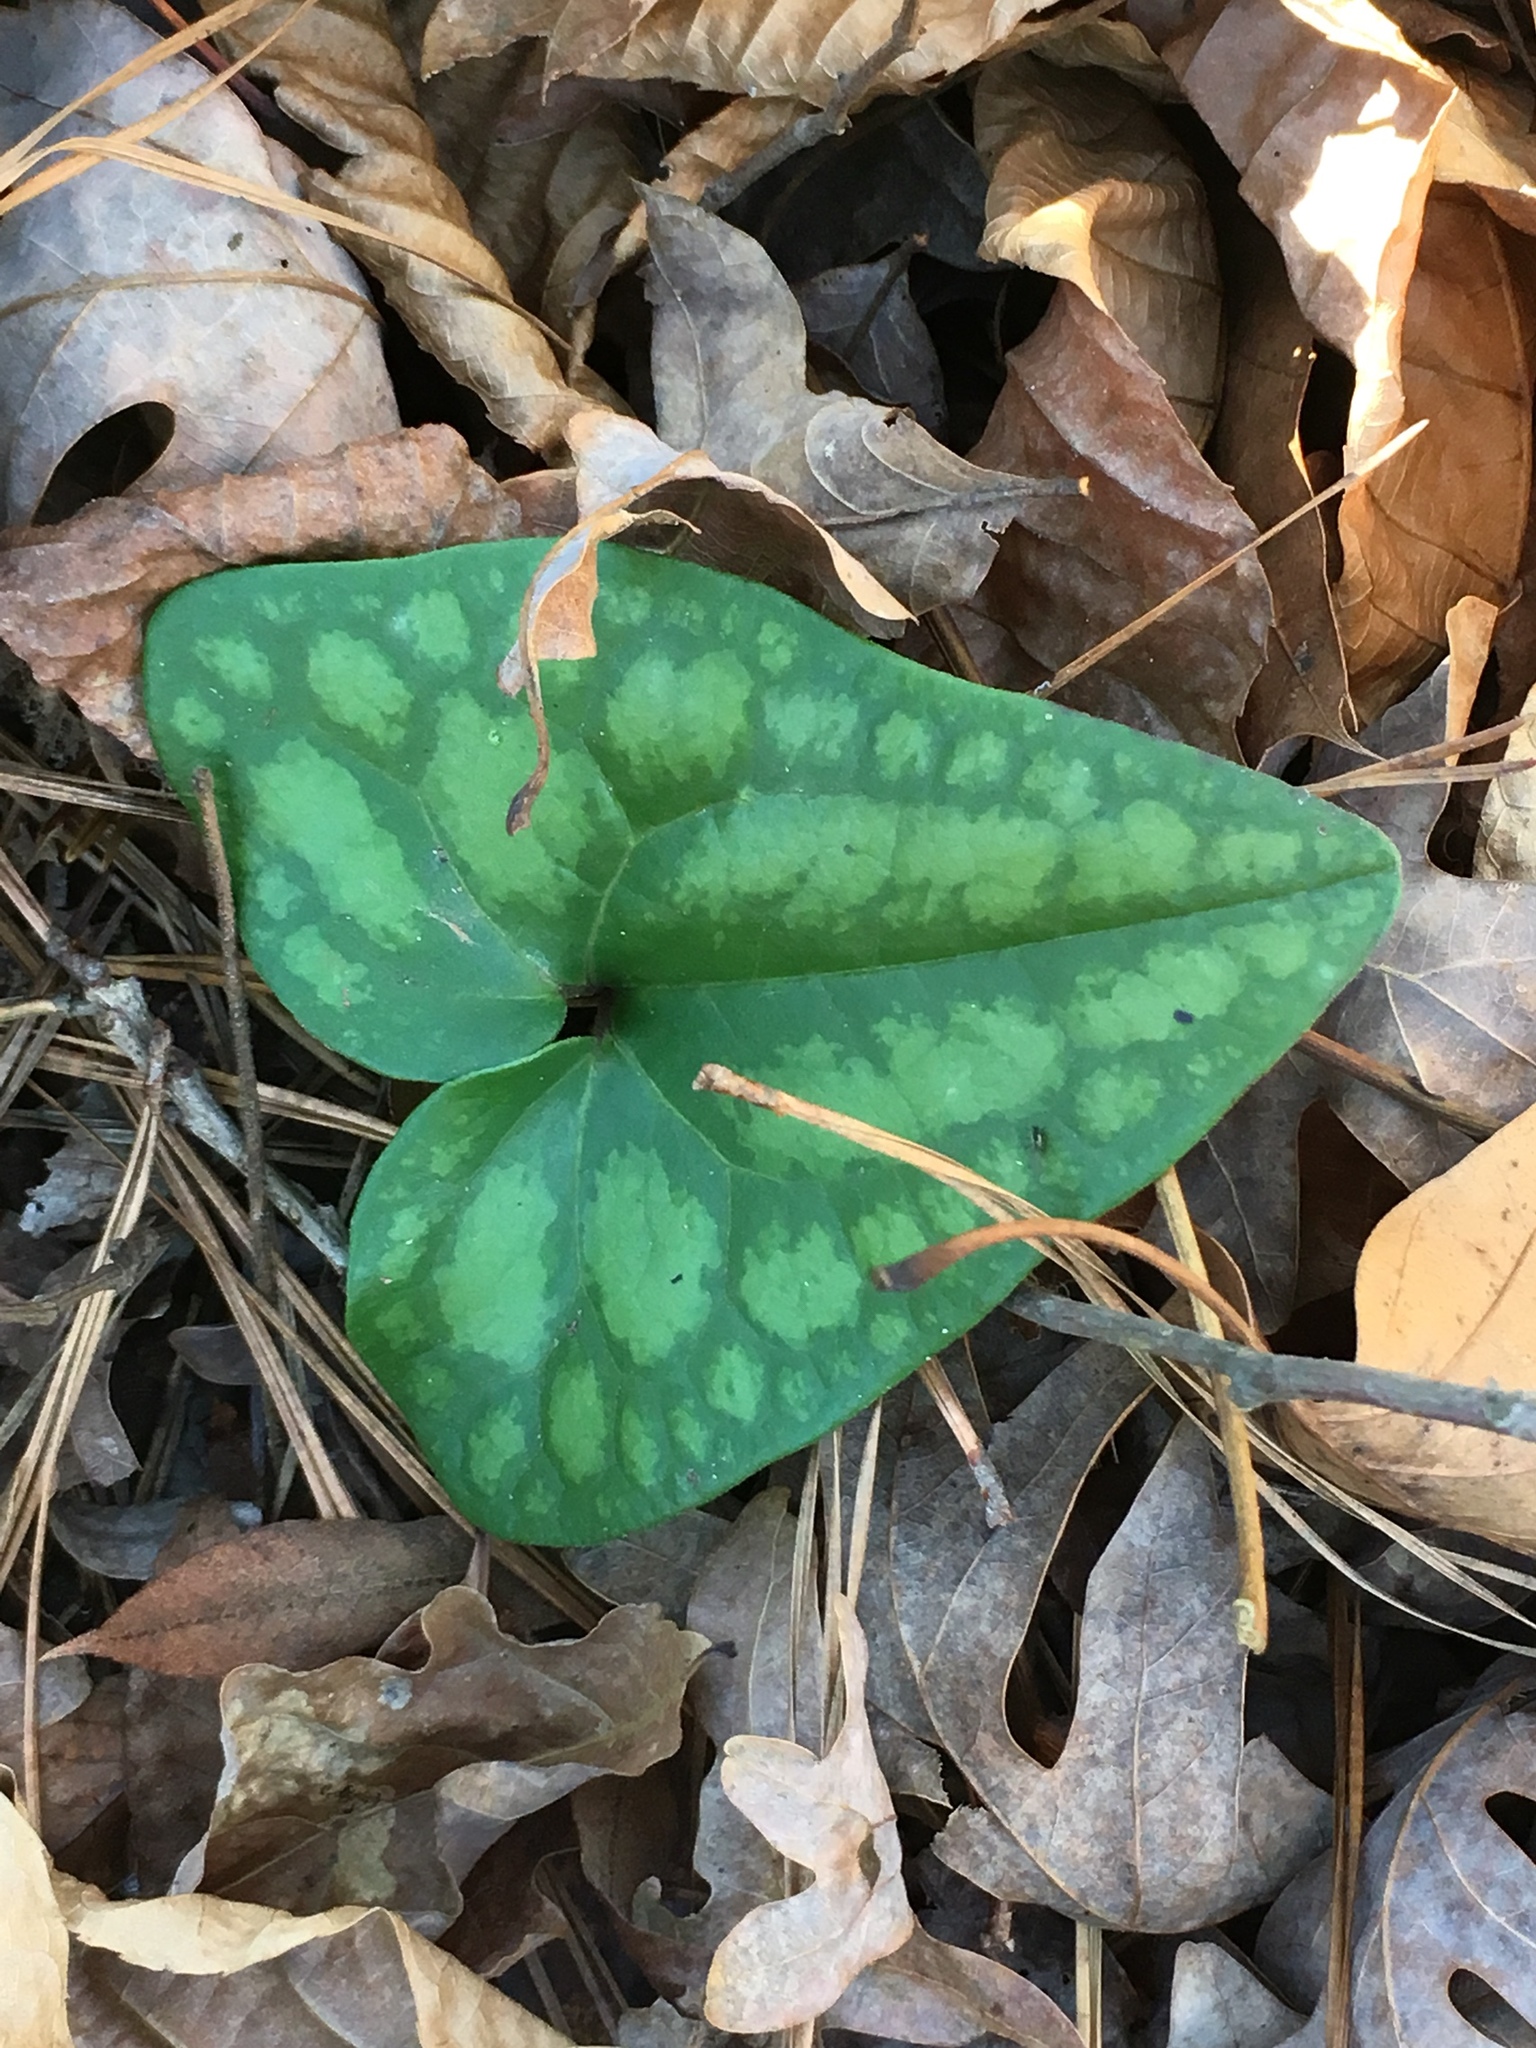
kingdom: Plantae
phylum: Tracheophyta
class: Magnoliopsida
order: Piperales
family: Aristolochiaceae
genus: Hexastylis
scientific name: Hexastylis arifolia
